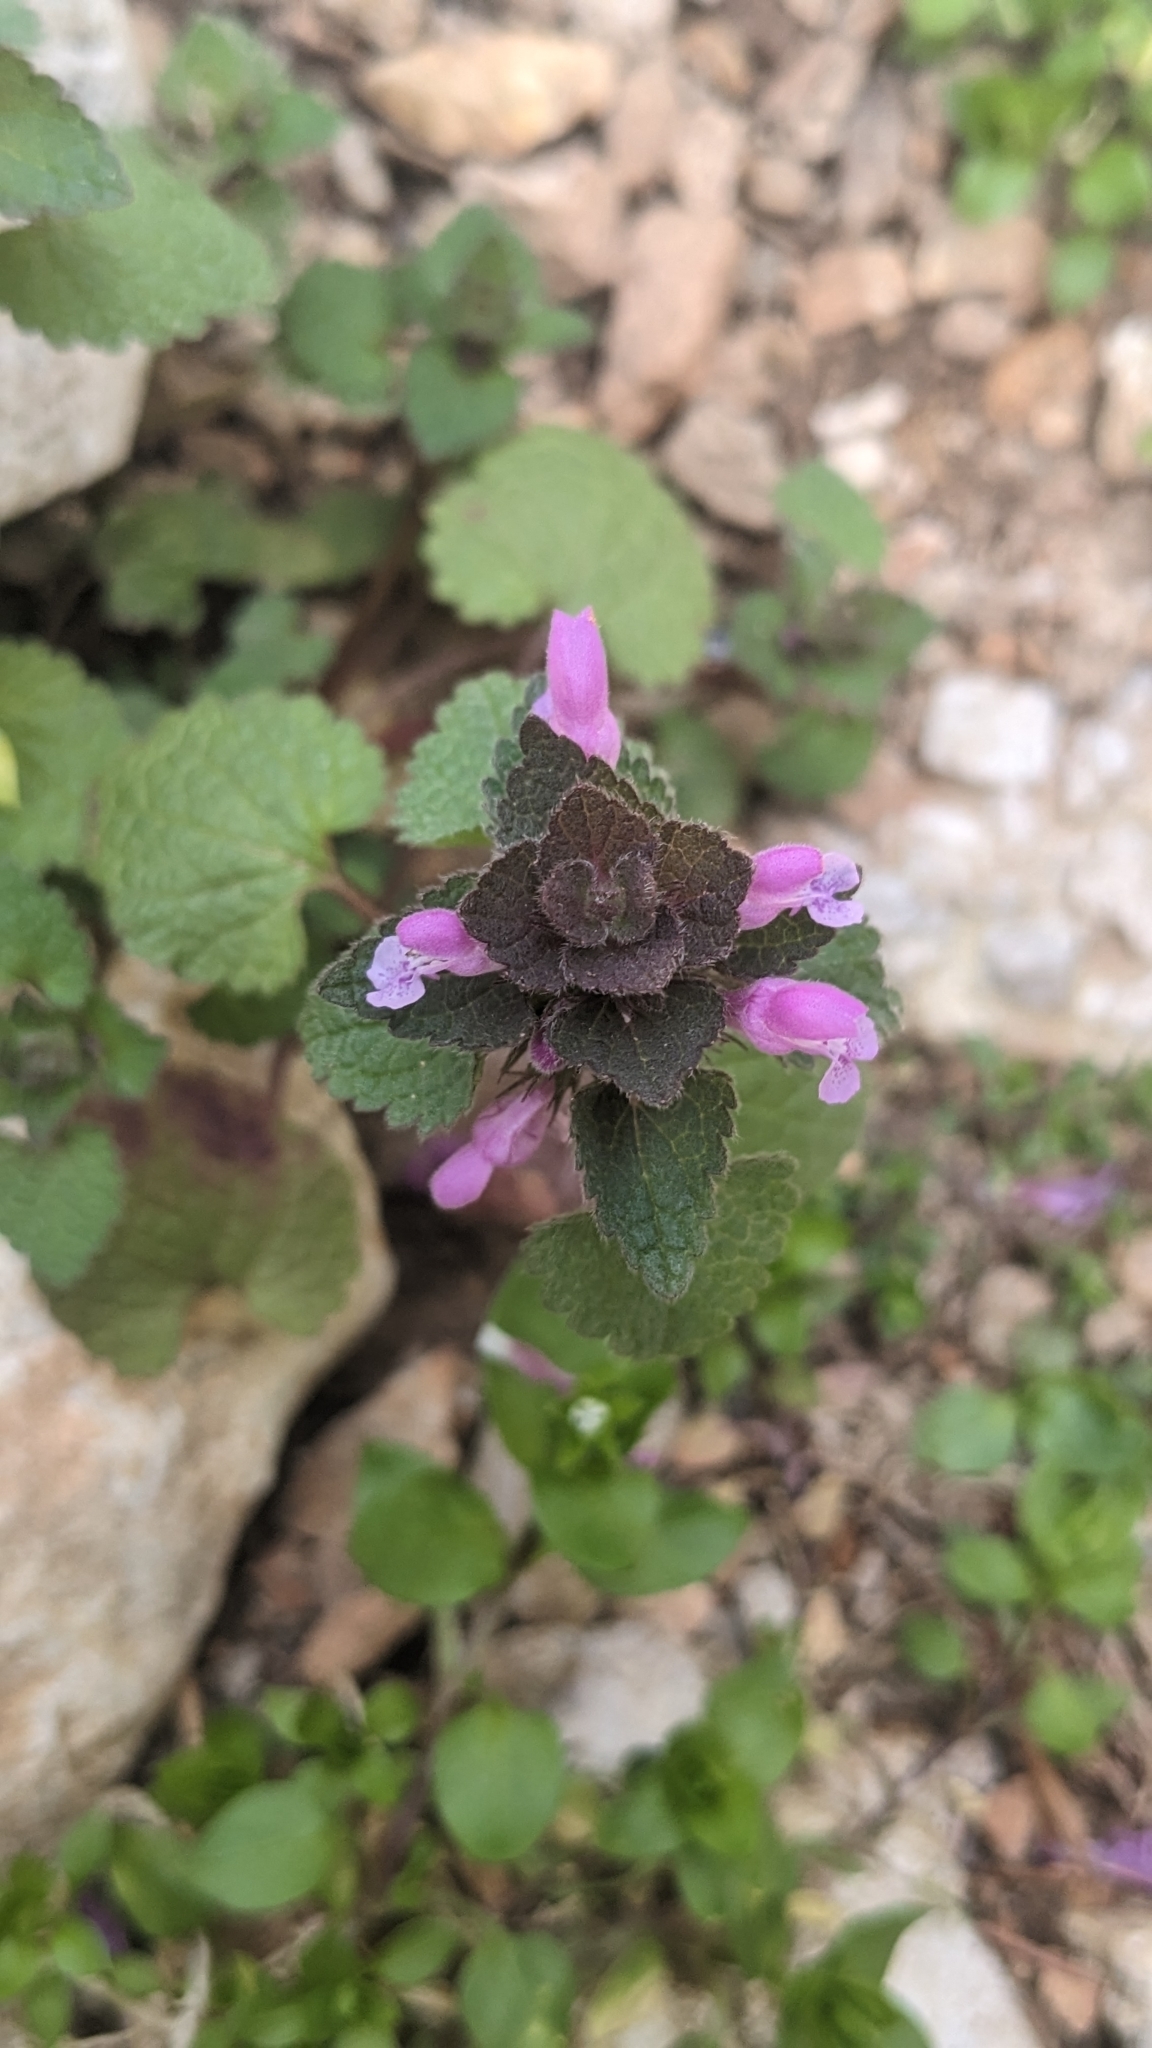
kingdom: Plantae
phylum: Tracheophyta
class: Magnoliopsida
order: Lamiales
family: Lamiaceae
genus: Lamium
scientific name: Lamium purpureum
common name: Red dead-nettle
